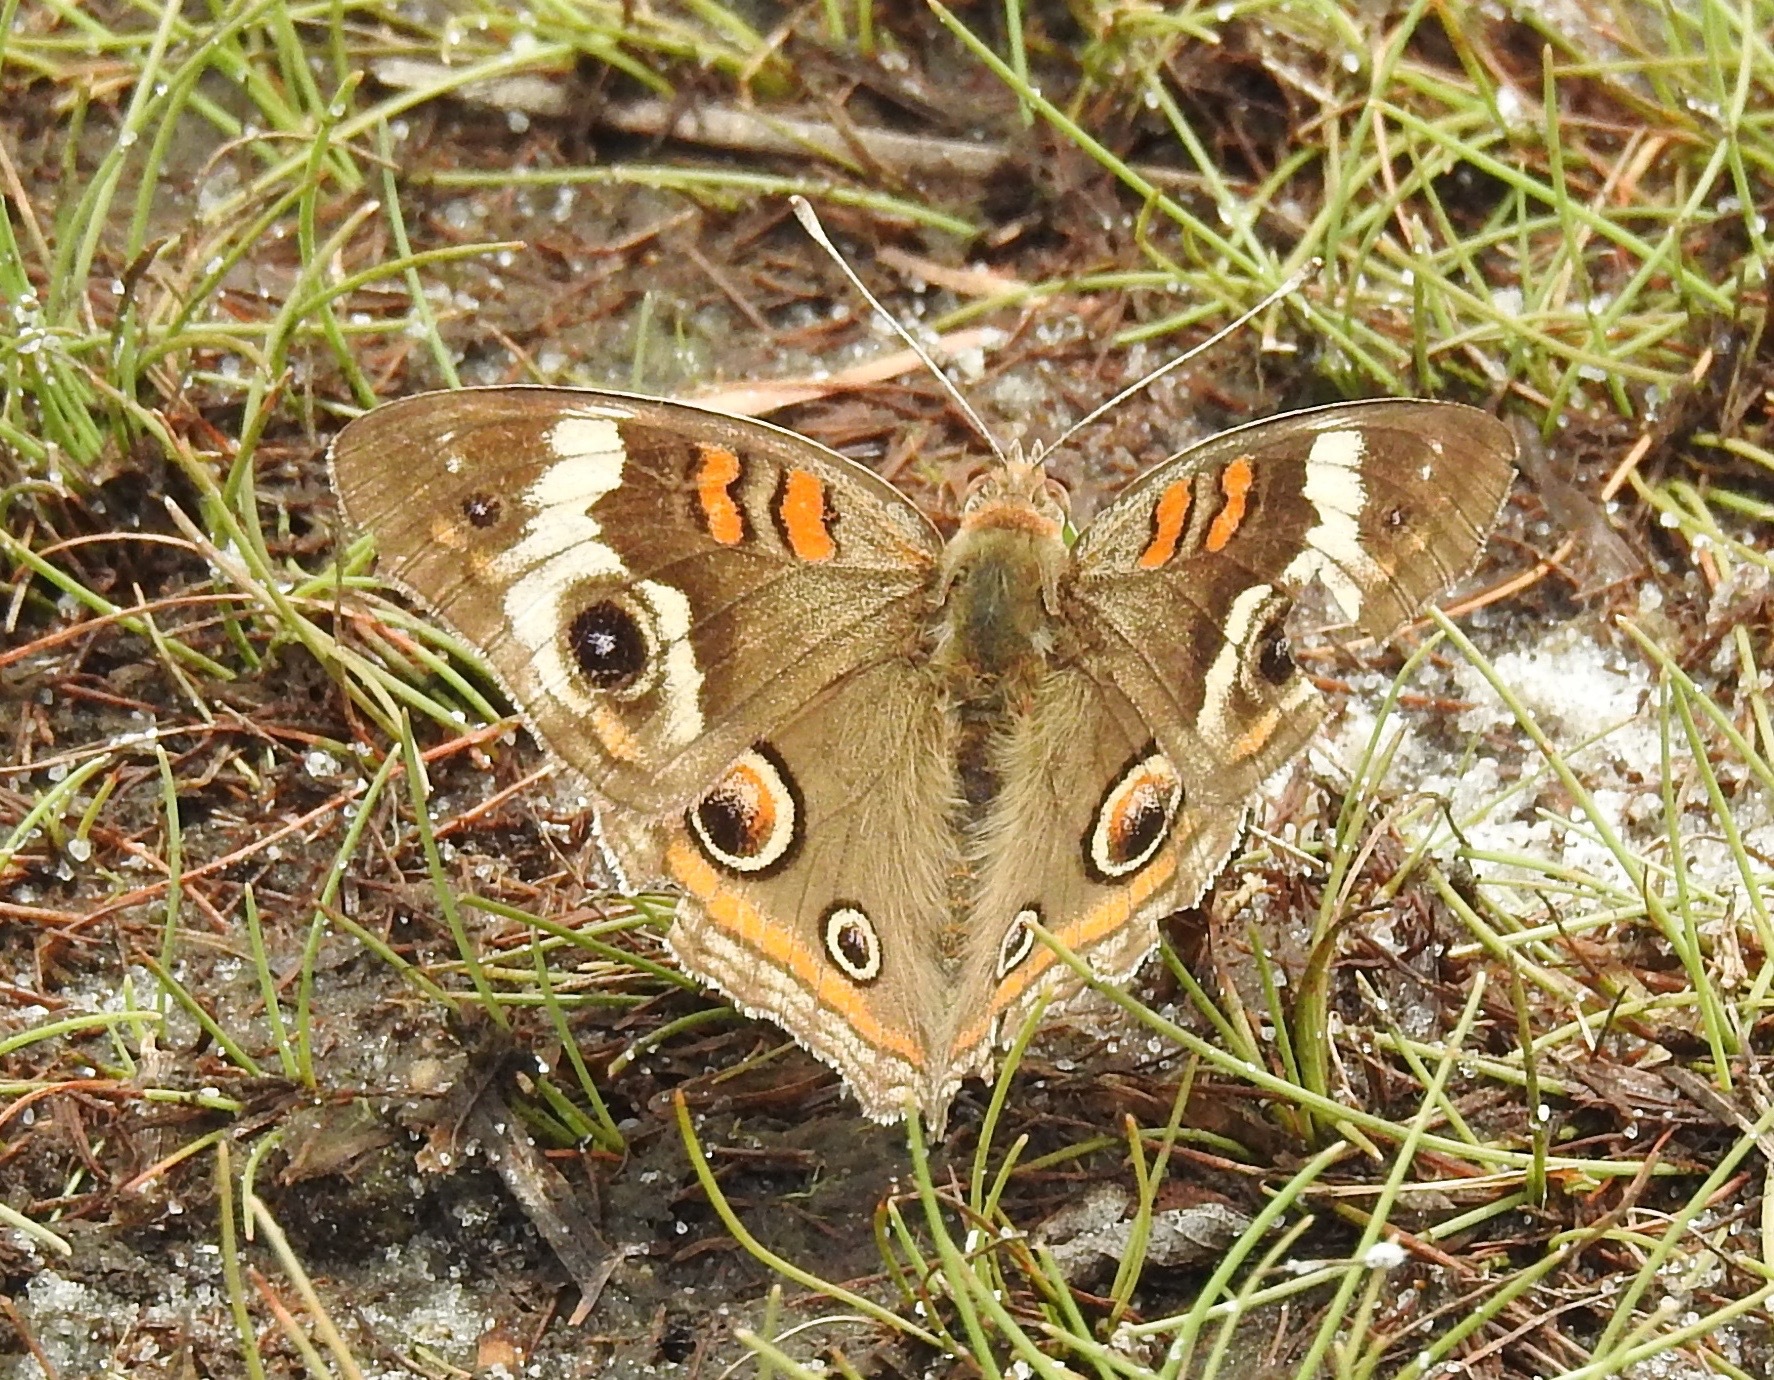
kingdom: Animalia
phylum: Arthropoda
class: Insecta
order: Lepidoptera
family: Nymphalidae
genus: Junonia
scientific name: Junonia coenia
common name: Common buckeye
